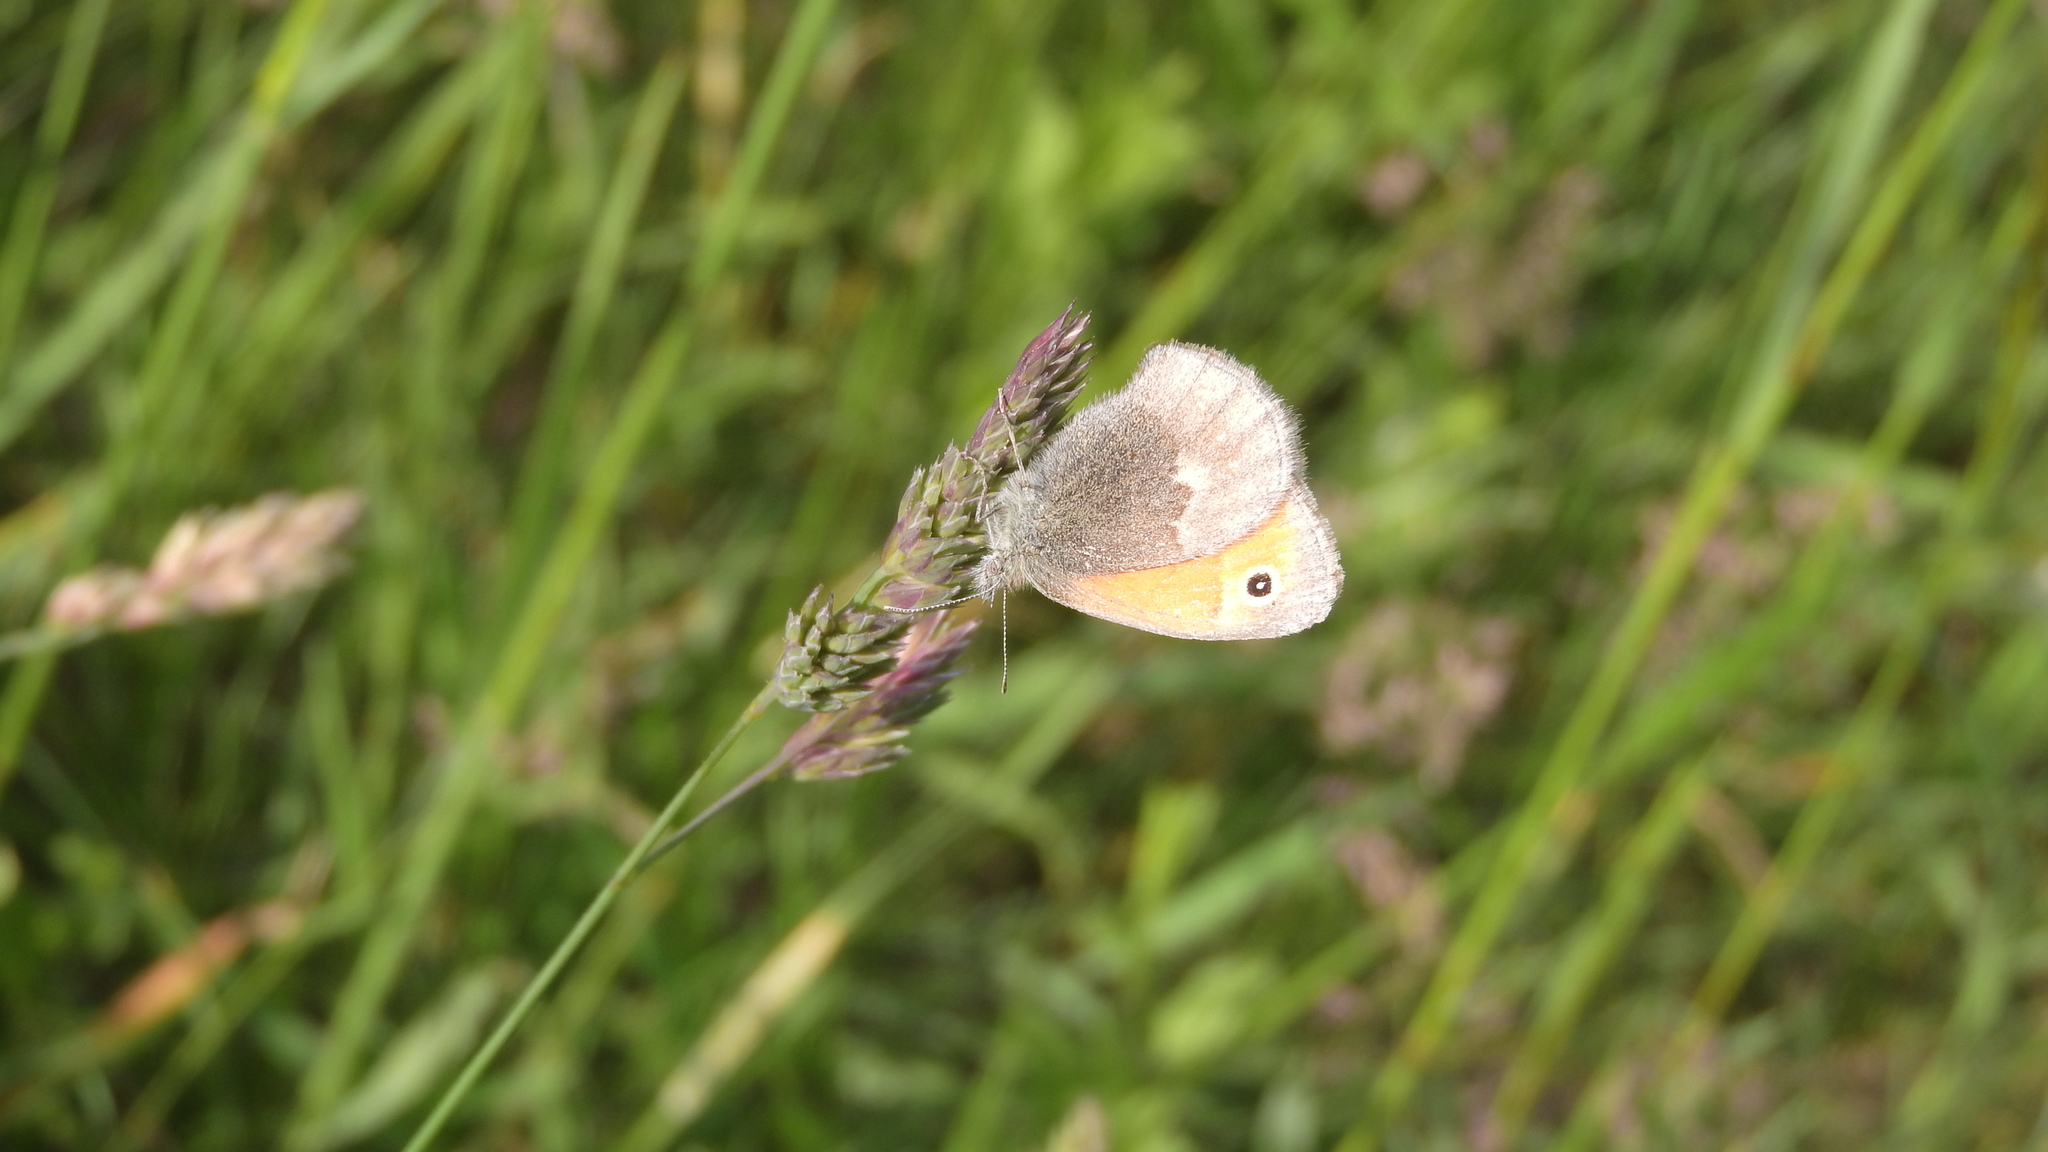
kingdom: Animalia
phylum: Arthropoda
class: Insecta
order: Lepidoptera
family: Nymphalidae
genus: Coenonympha
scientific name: Coenonympha pamphilus
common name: Small heath
